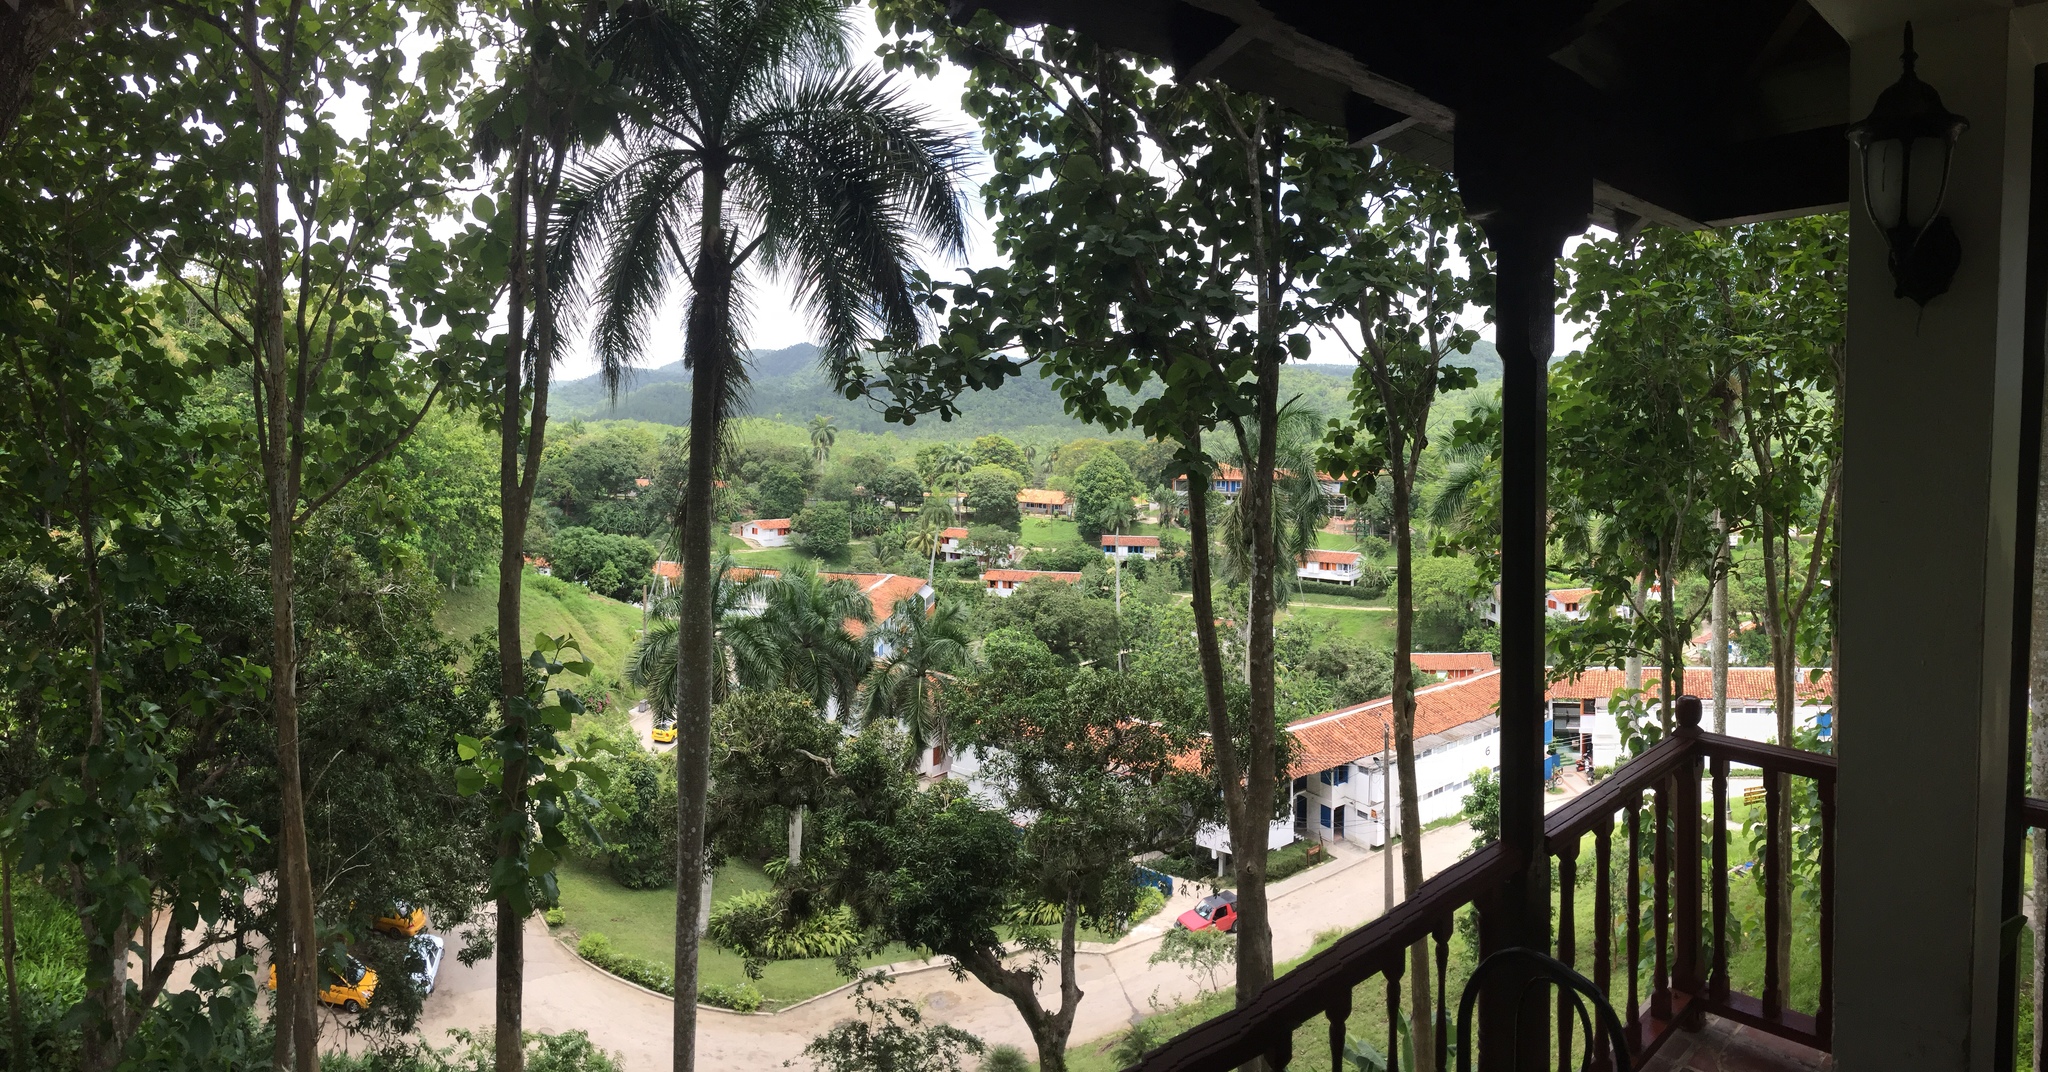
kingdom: Plantae
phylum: Tracheophyta
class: Liliopsida
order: Arecales
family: Arecaceae
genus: Roystonea
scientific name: Roystonea regia
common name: Florida royal palm
